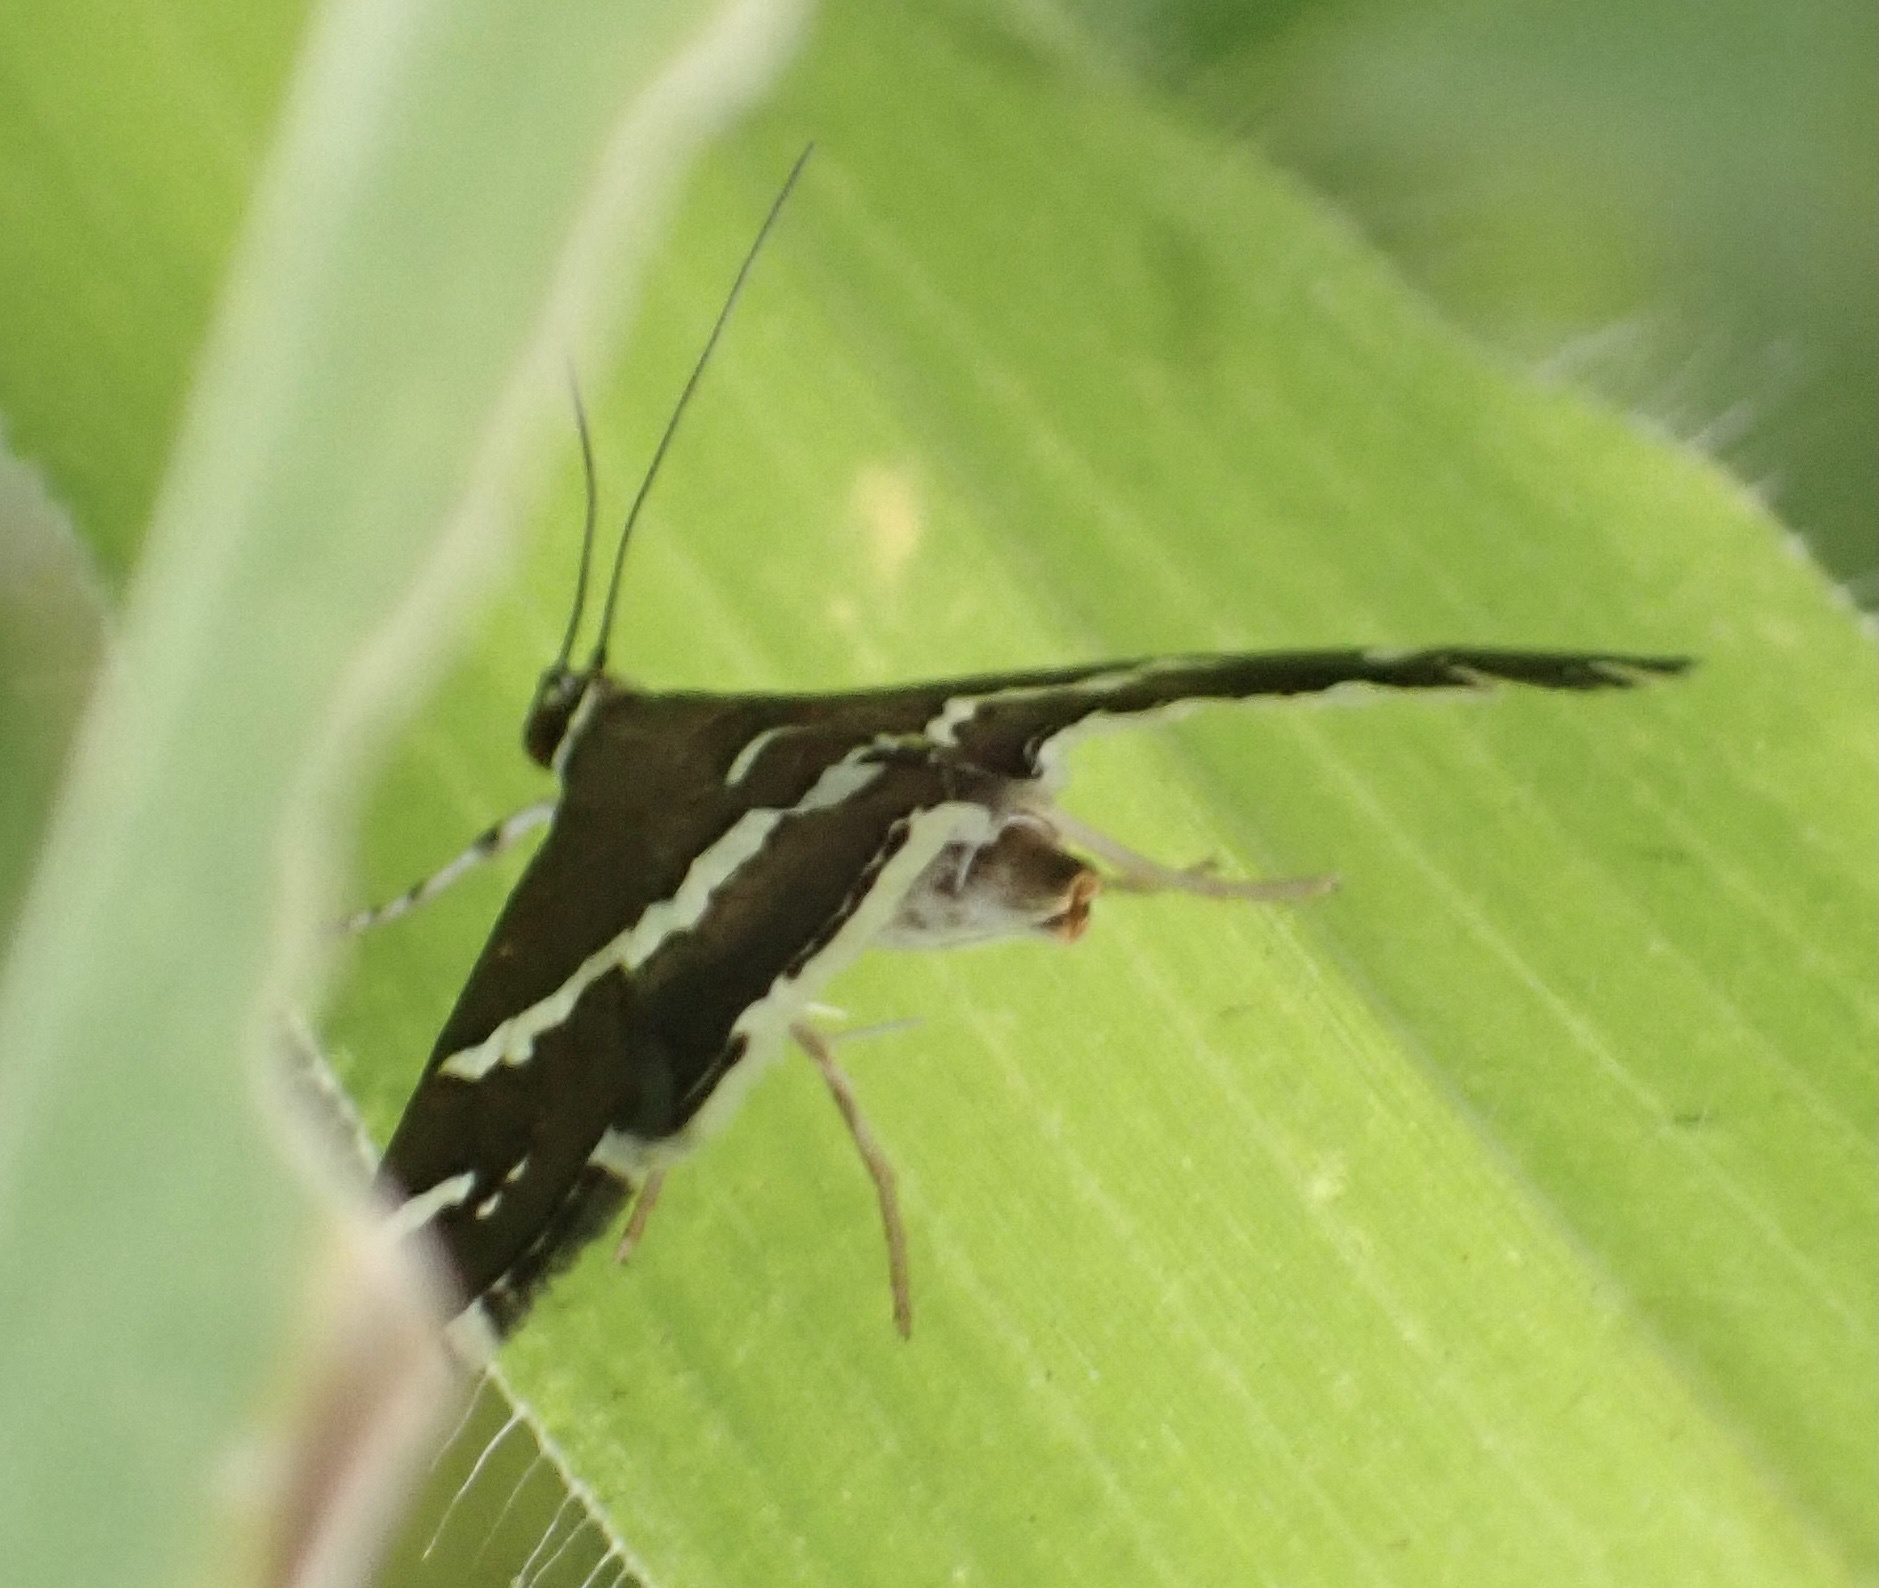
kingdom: Animalia
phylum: Arthropoda
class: Insecta
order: Lepidoptera
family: Crambidae
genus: Spoladea
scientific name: Spoladea recurvalis
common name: Beet webworm moth
